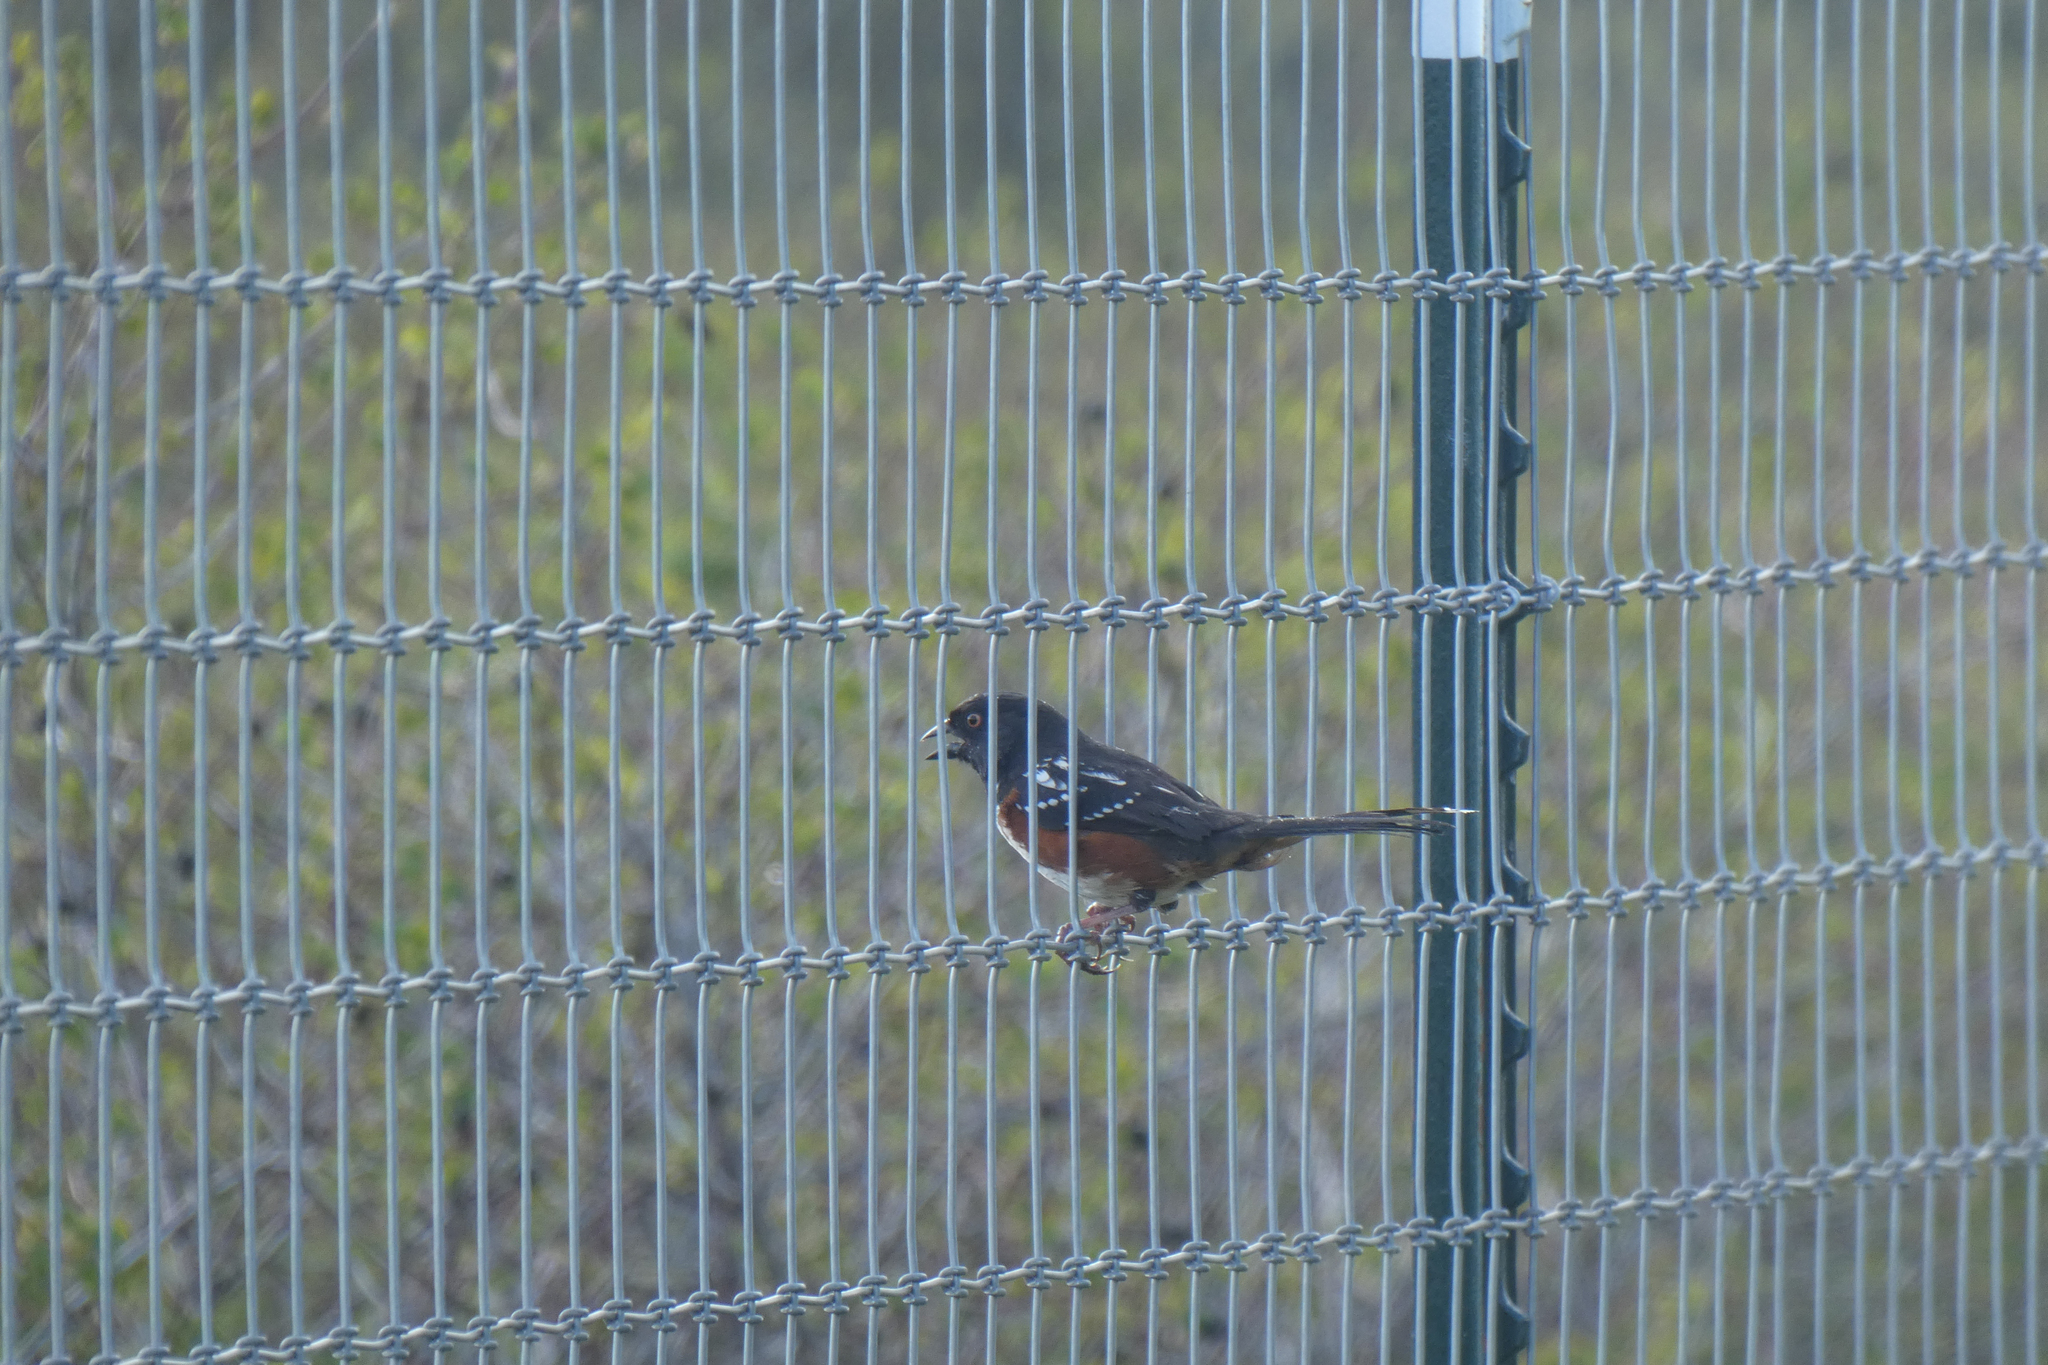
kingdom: Animalia
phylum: Chordata
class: Aves
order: Passeriformes
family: Passerellidae
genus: Pipilo
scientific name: Pipilo maculatus
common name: Spotted towhee
